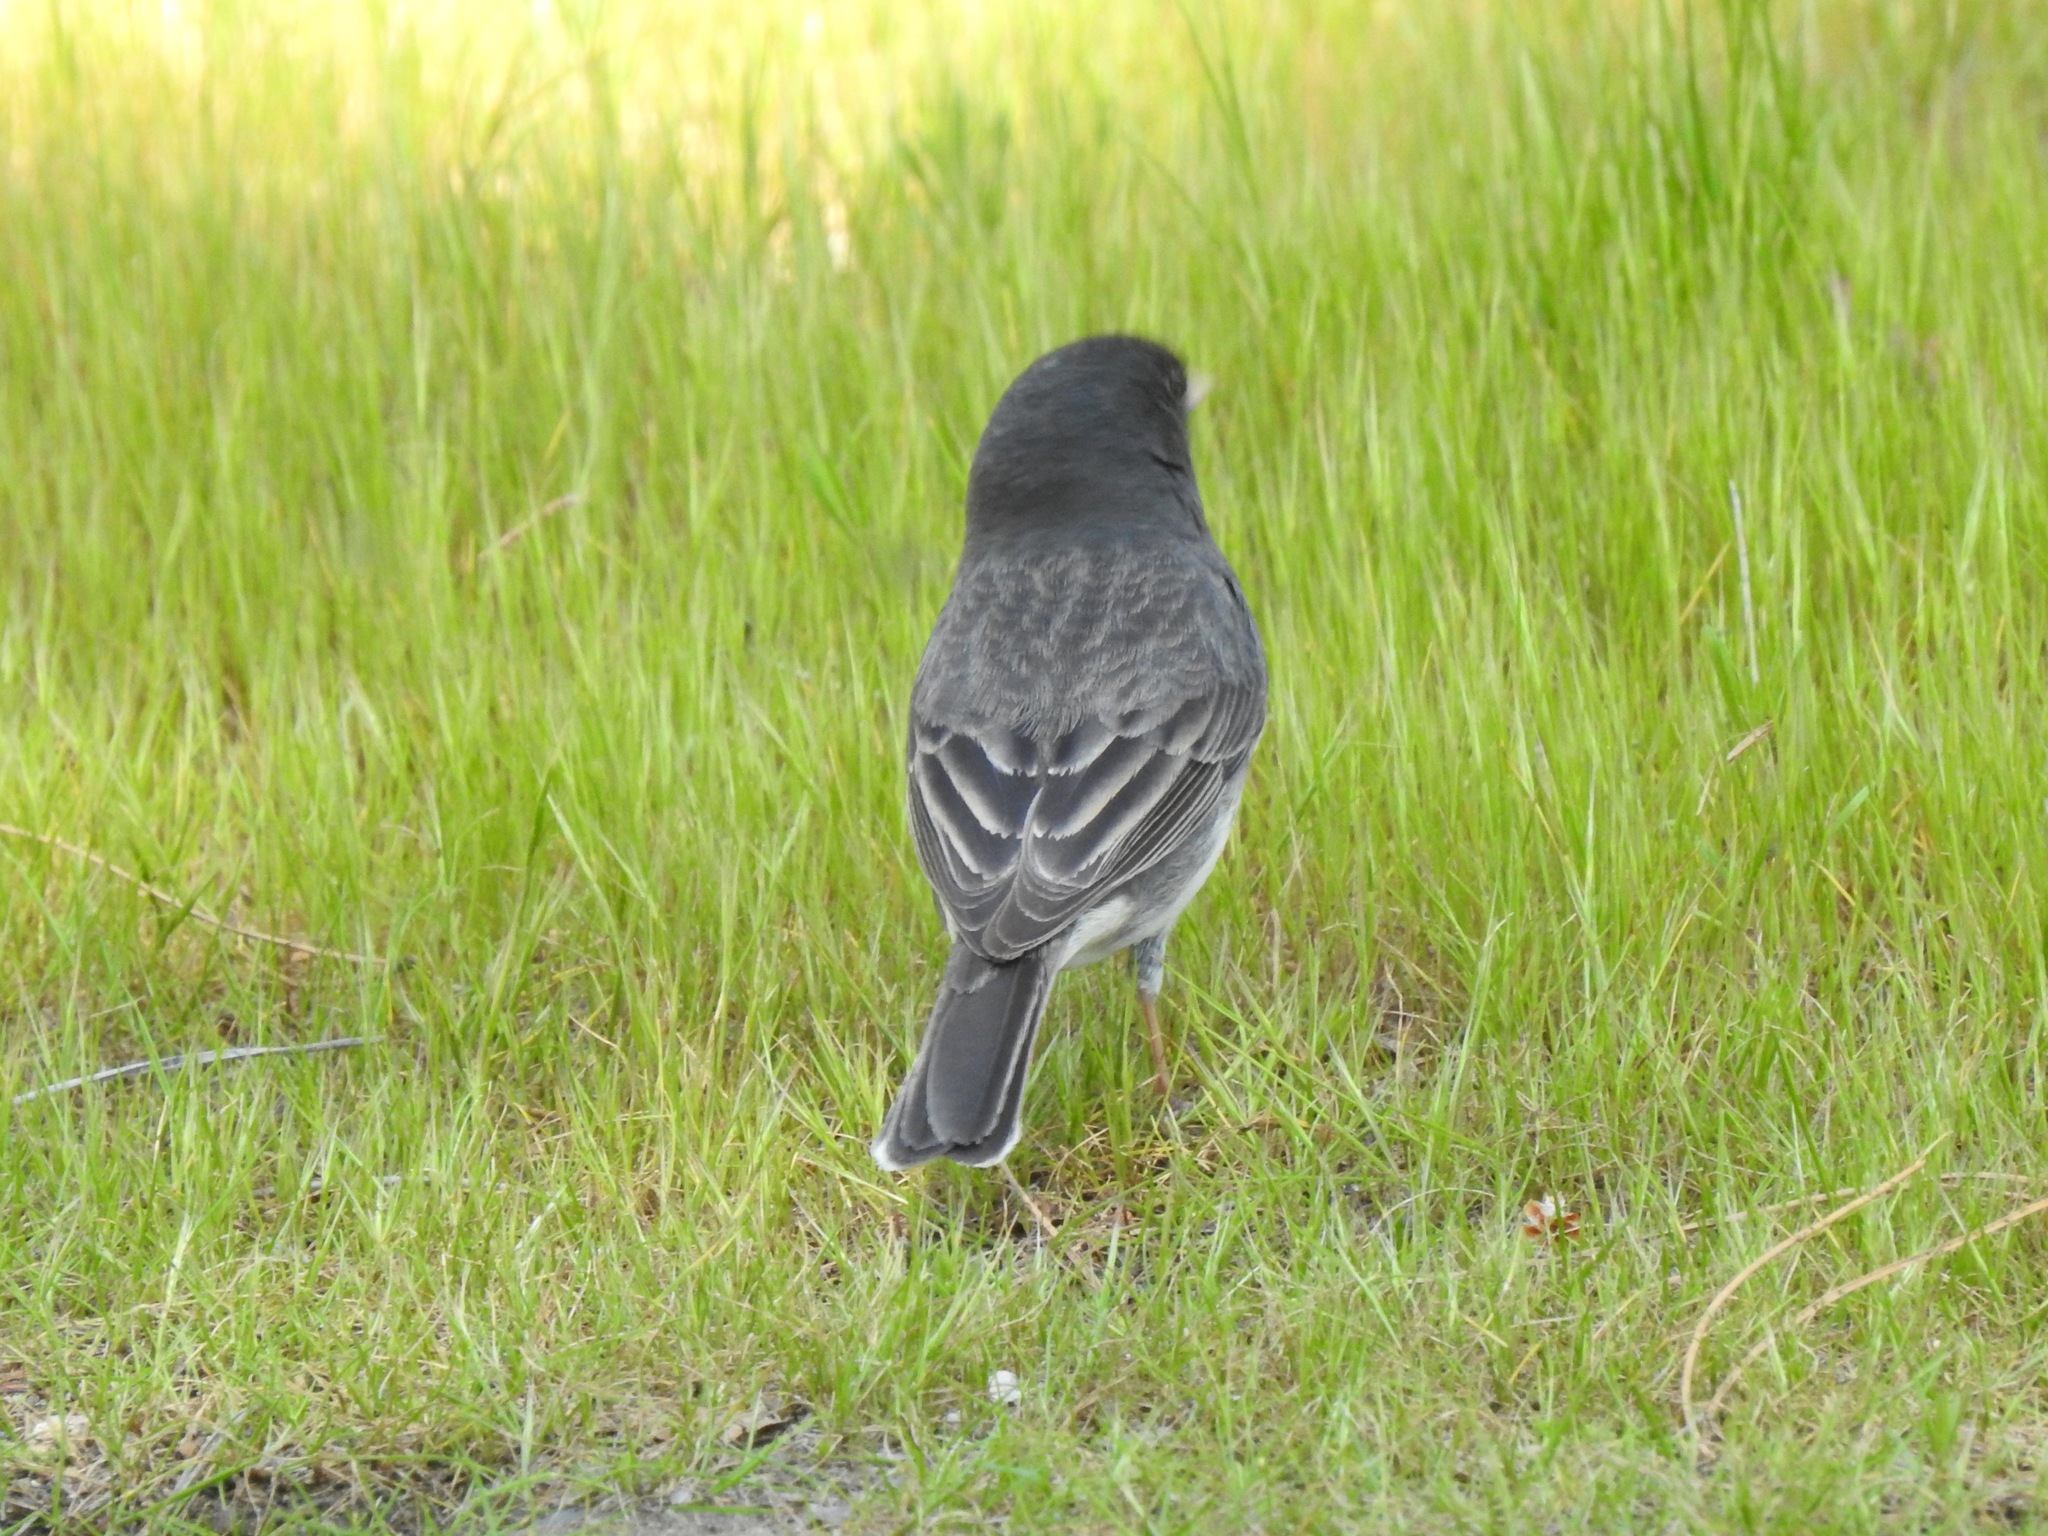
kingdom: Animalia
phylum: Chordata
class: Aves
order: Passeriformes
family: Passerellidae
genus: Junco
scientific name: Junco hyemalis
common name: Dark-eyed junco
